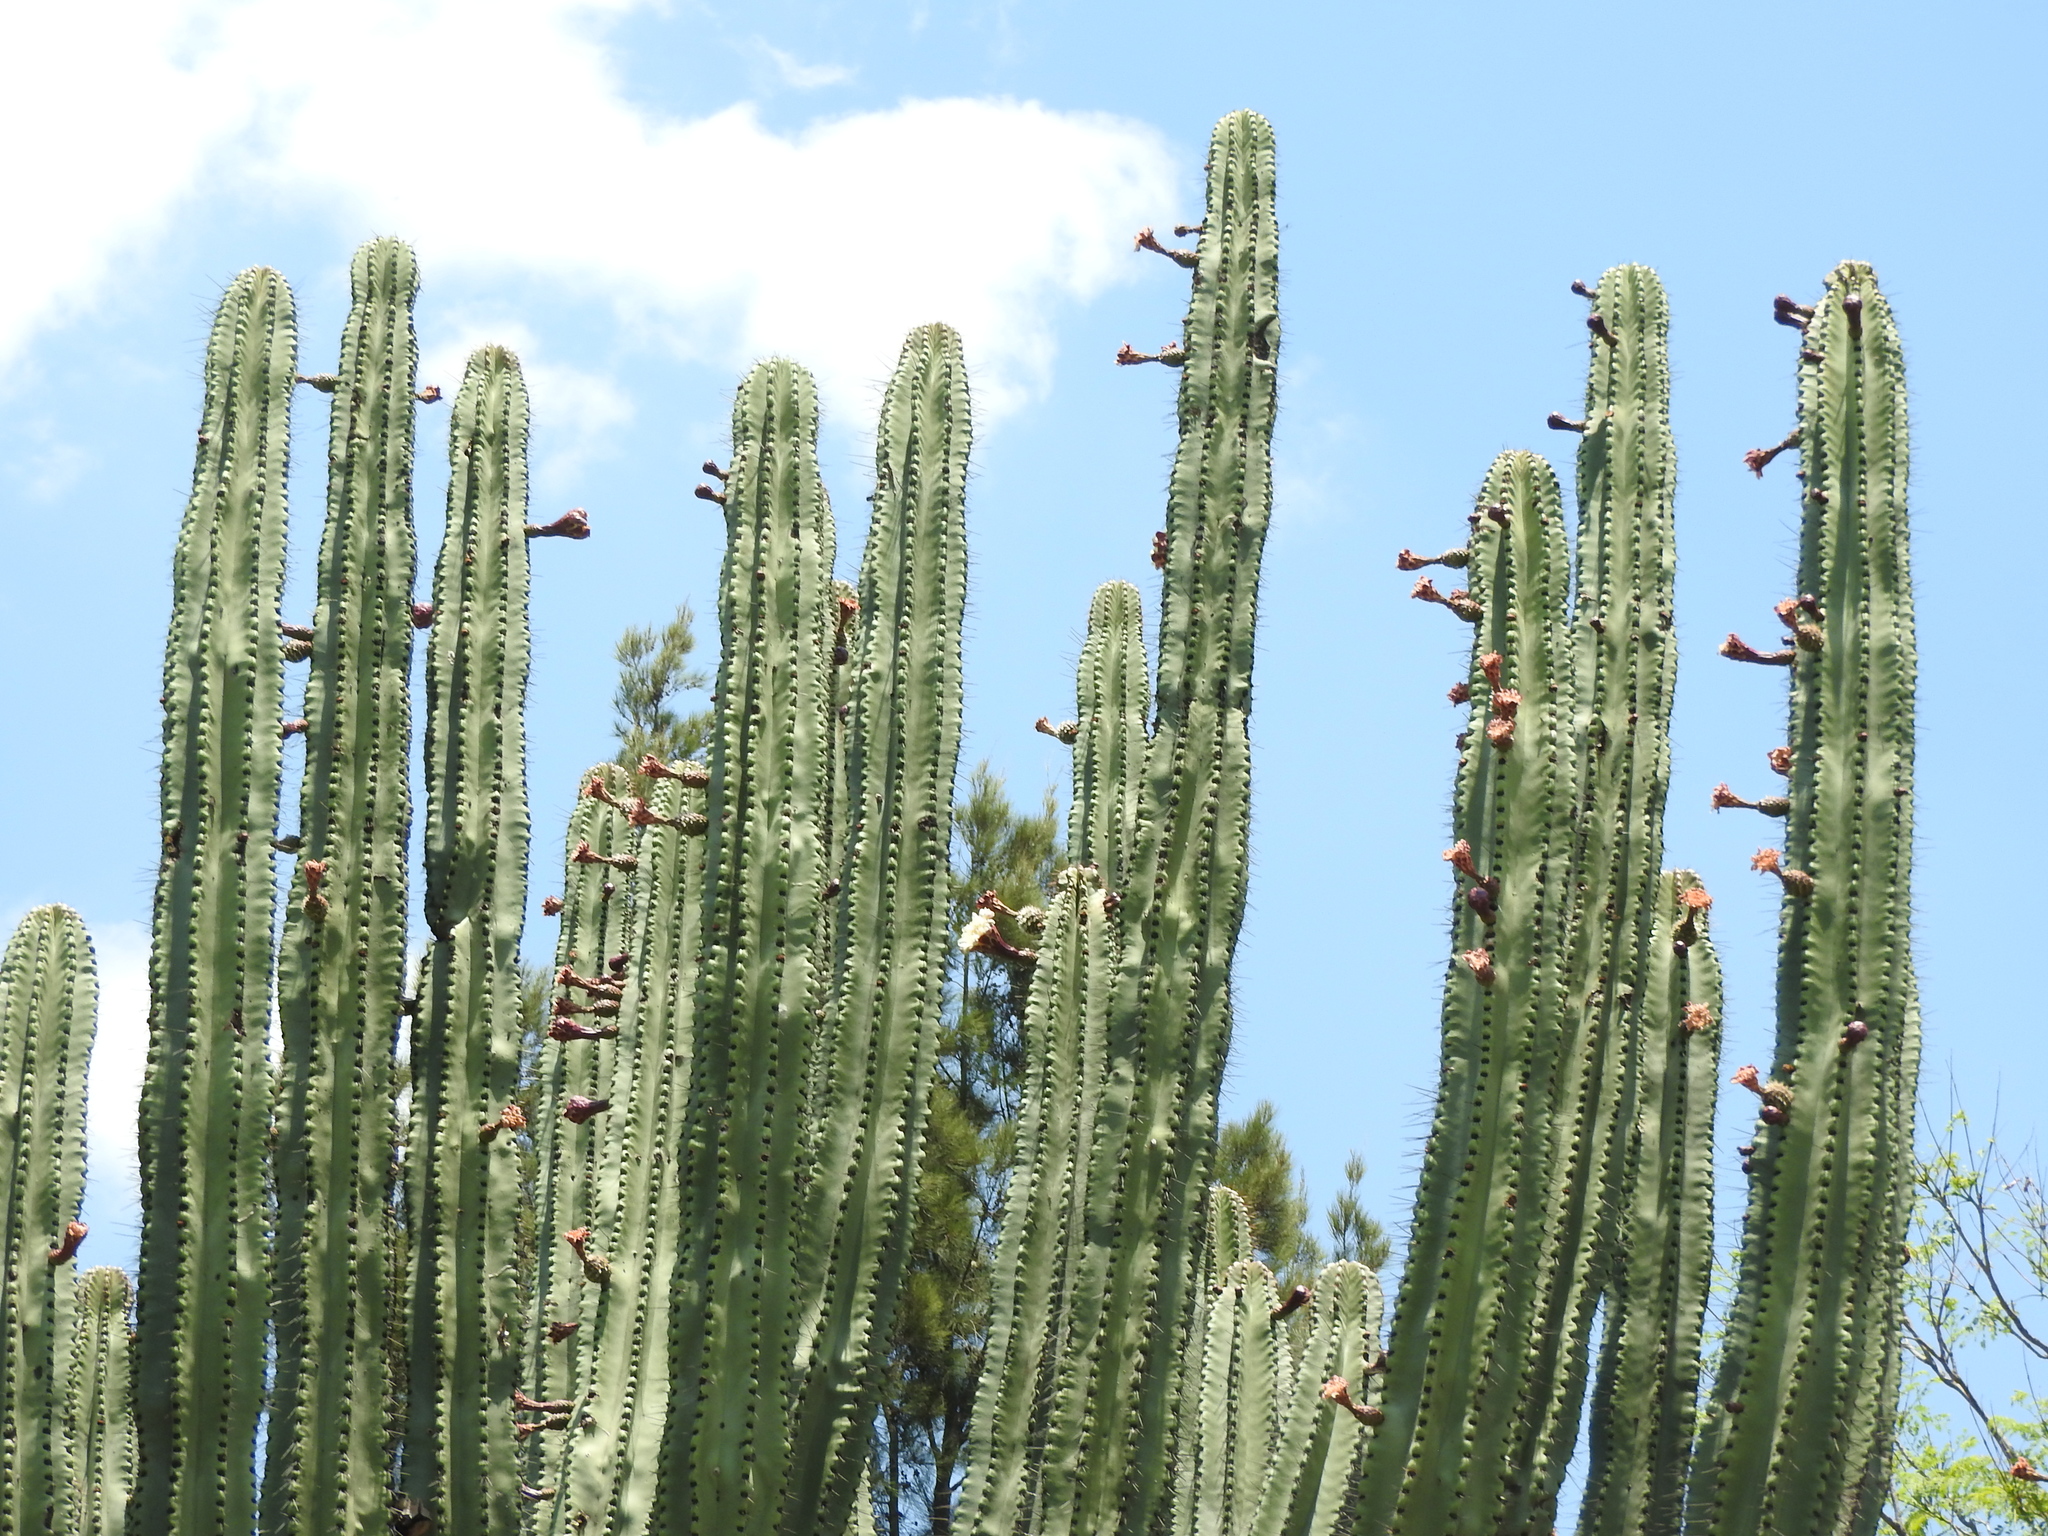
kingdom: Plantae
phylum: Tracheophyta
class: Magnoliopsida
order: Caryophyllales
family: Cactaceae
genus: Stenocereus
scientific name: Stenocereus queretaroensis
